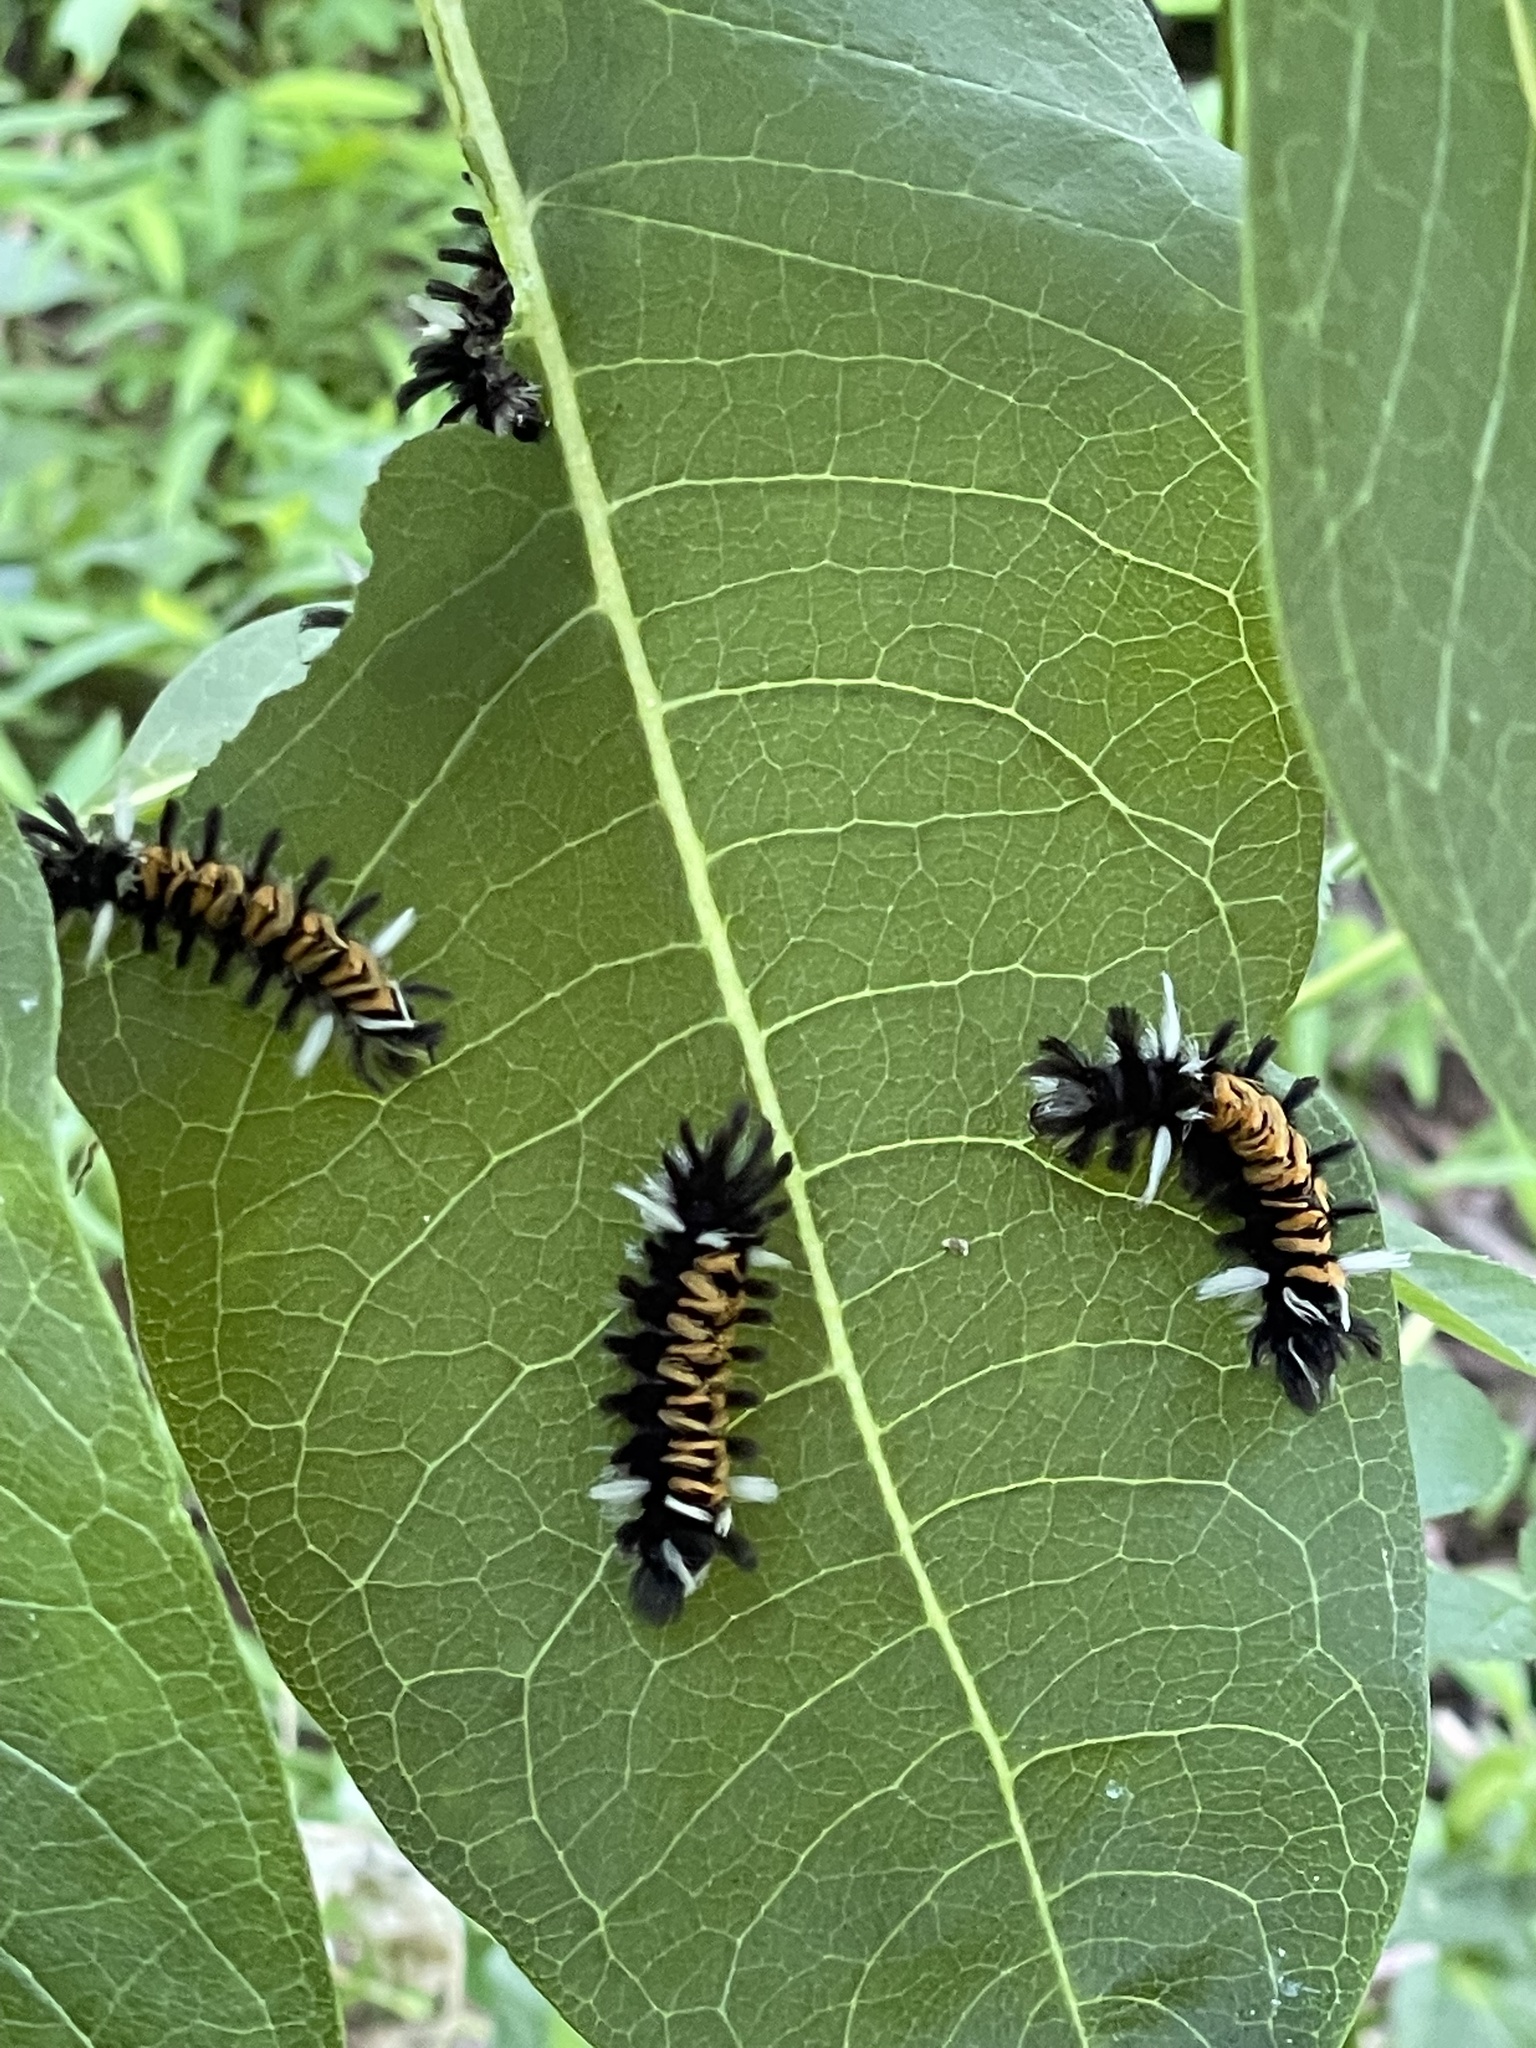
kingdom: Animalia
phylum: Arthropoda
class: Insecta
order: Lepidoptera
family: Erebidae
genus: Euchaetes
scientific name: Euchaetes egle
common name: Milkweed tussock moth
